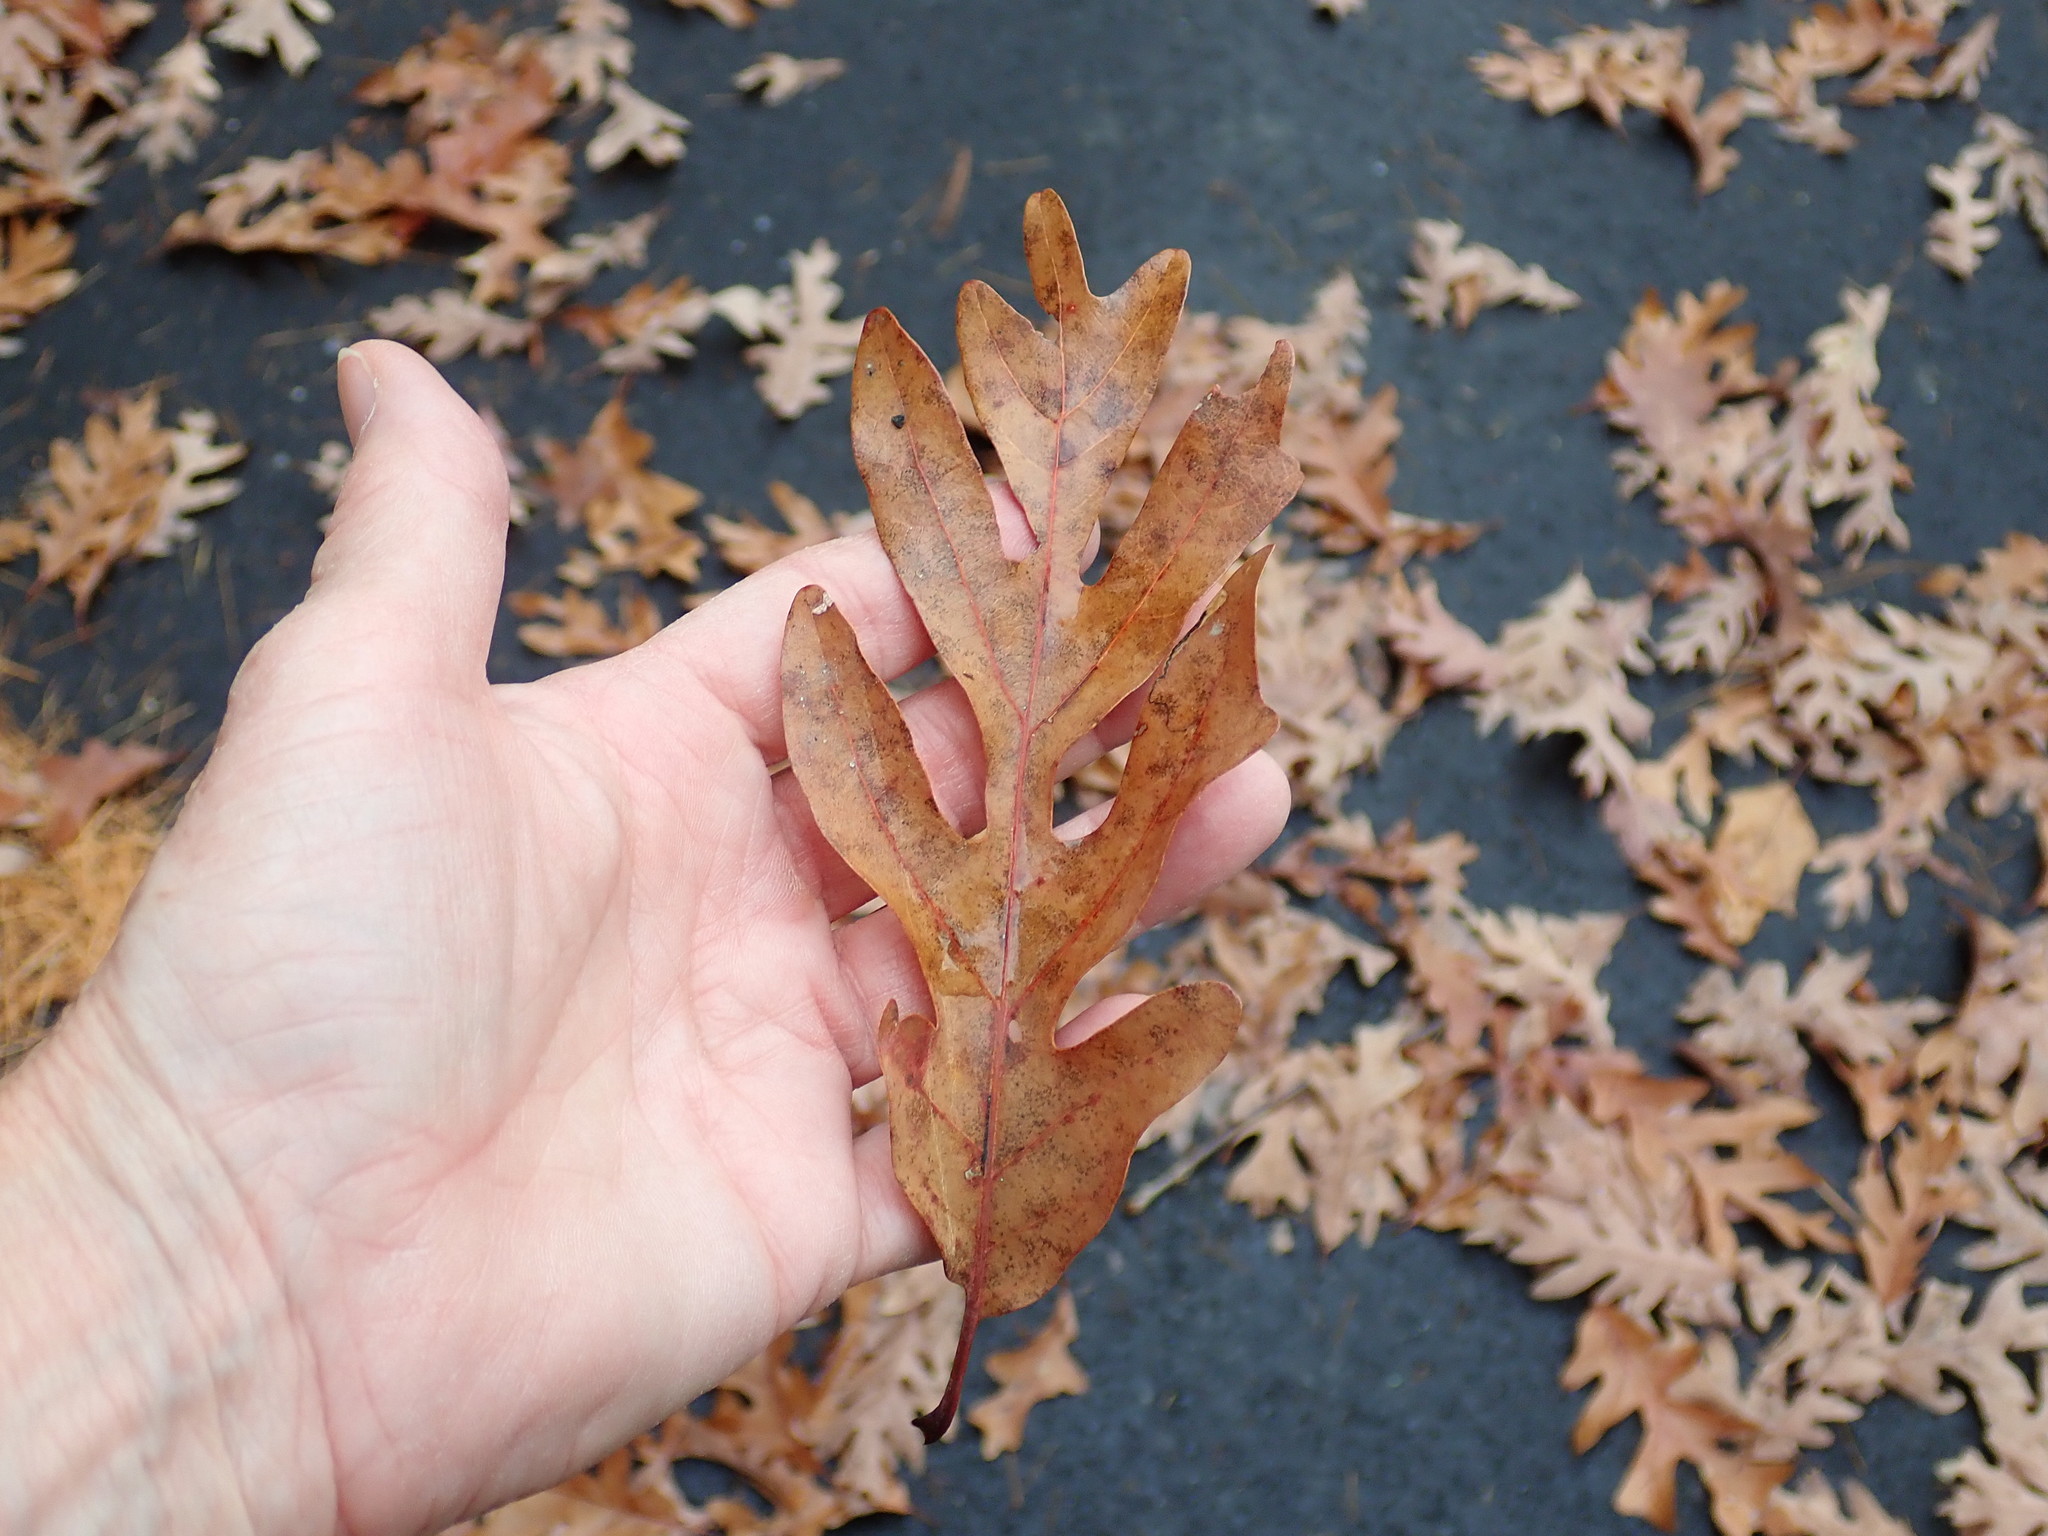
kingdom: Plantae
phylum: Tracheophyta
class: Magnoliopsida
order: Fagales
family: Fagaceae
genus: Quercus
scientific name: Quercus alba
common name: White oak
